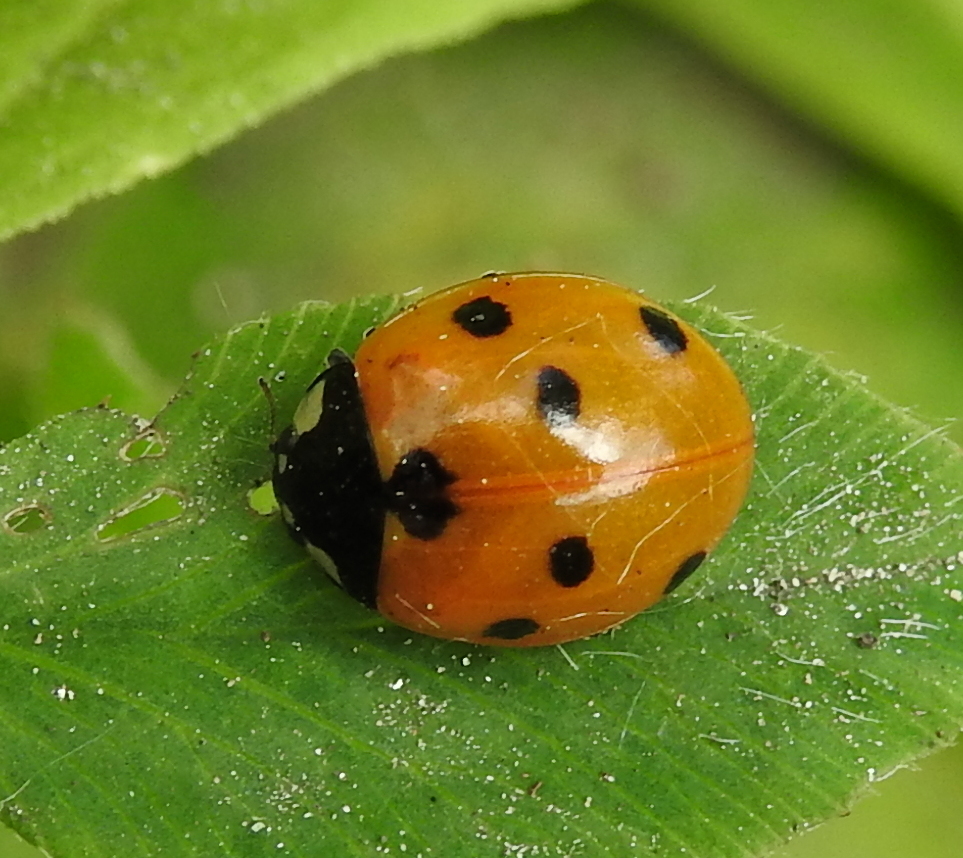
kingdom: Animalia
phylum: Arthropoda
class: Insecta
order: Coleoptera
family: Coccinellidae
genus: Coccinella
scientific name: Coccinella septempunctata
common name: Sevenspotted lady beetle
